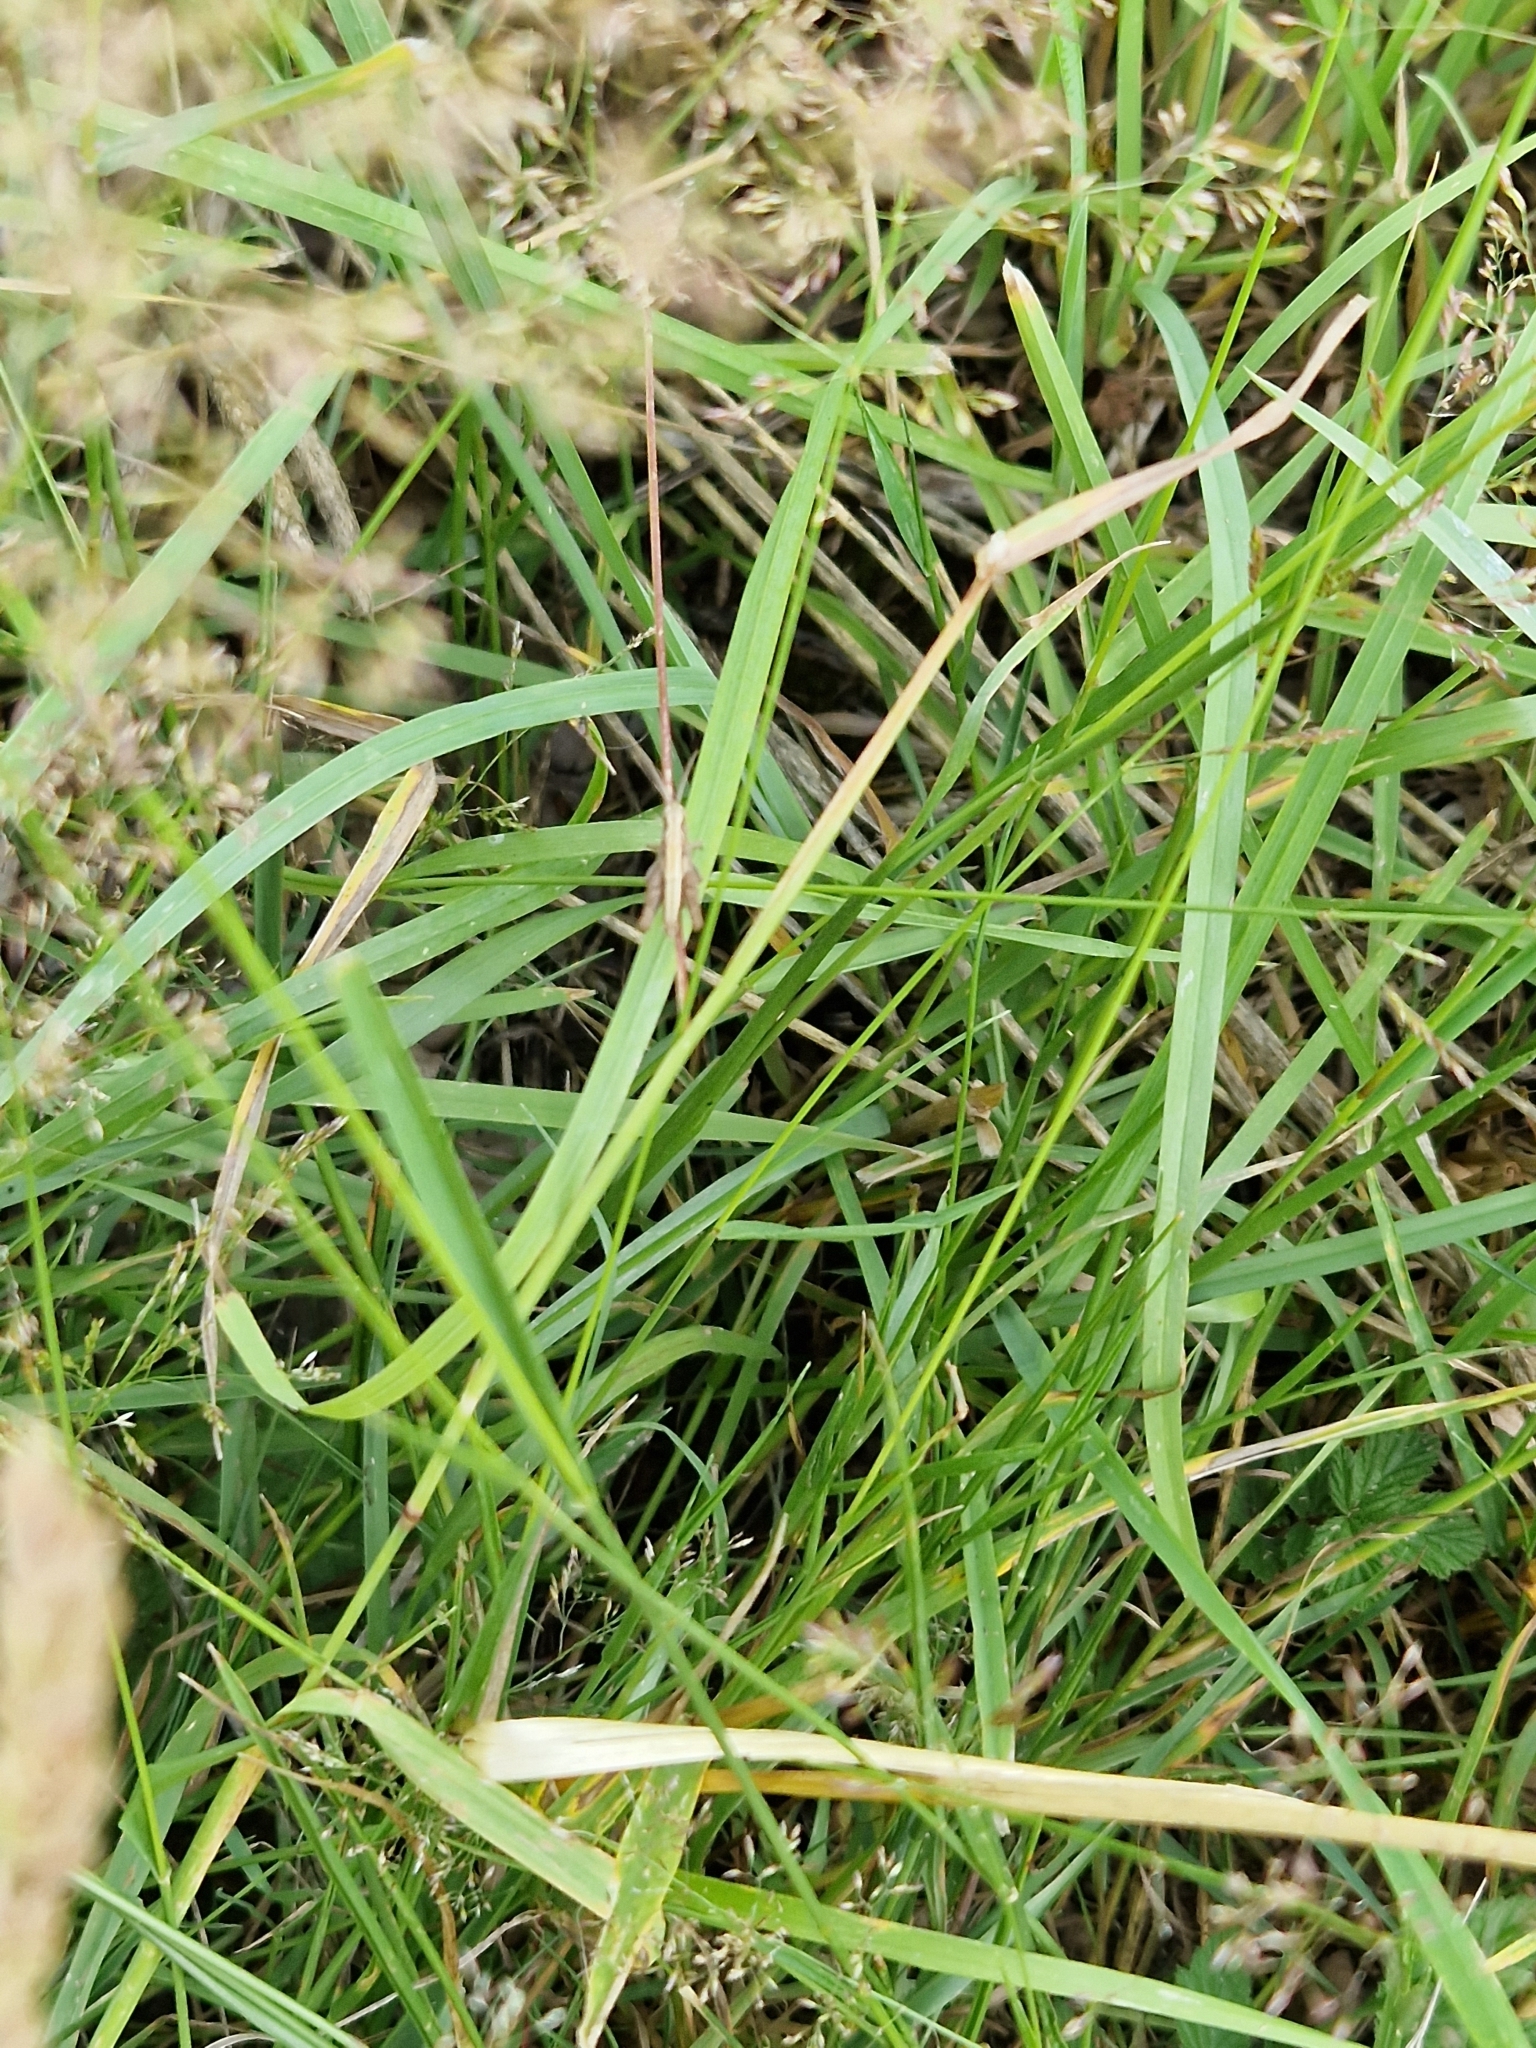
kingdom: Animalia
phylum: Arthropoda
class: Insecta
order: Orthoptera
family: Acrididae
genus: Chorthippus
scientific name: Chorthippus brunneus
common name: Field grasshopper
